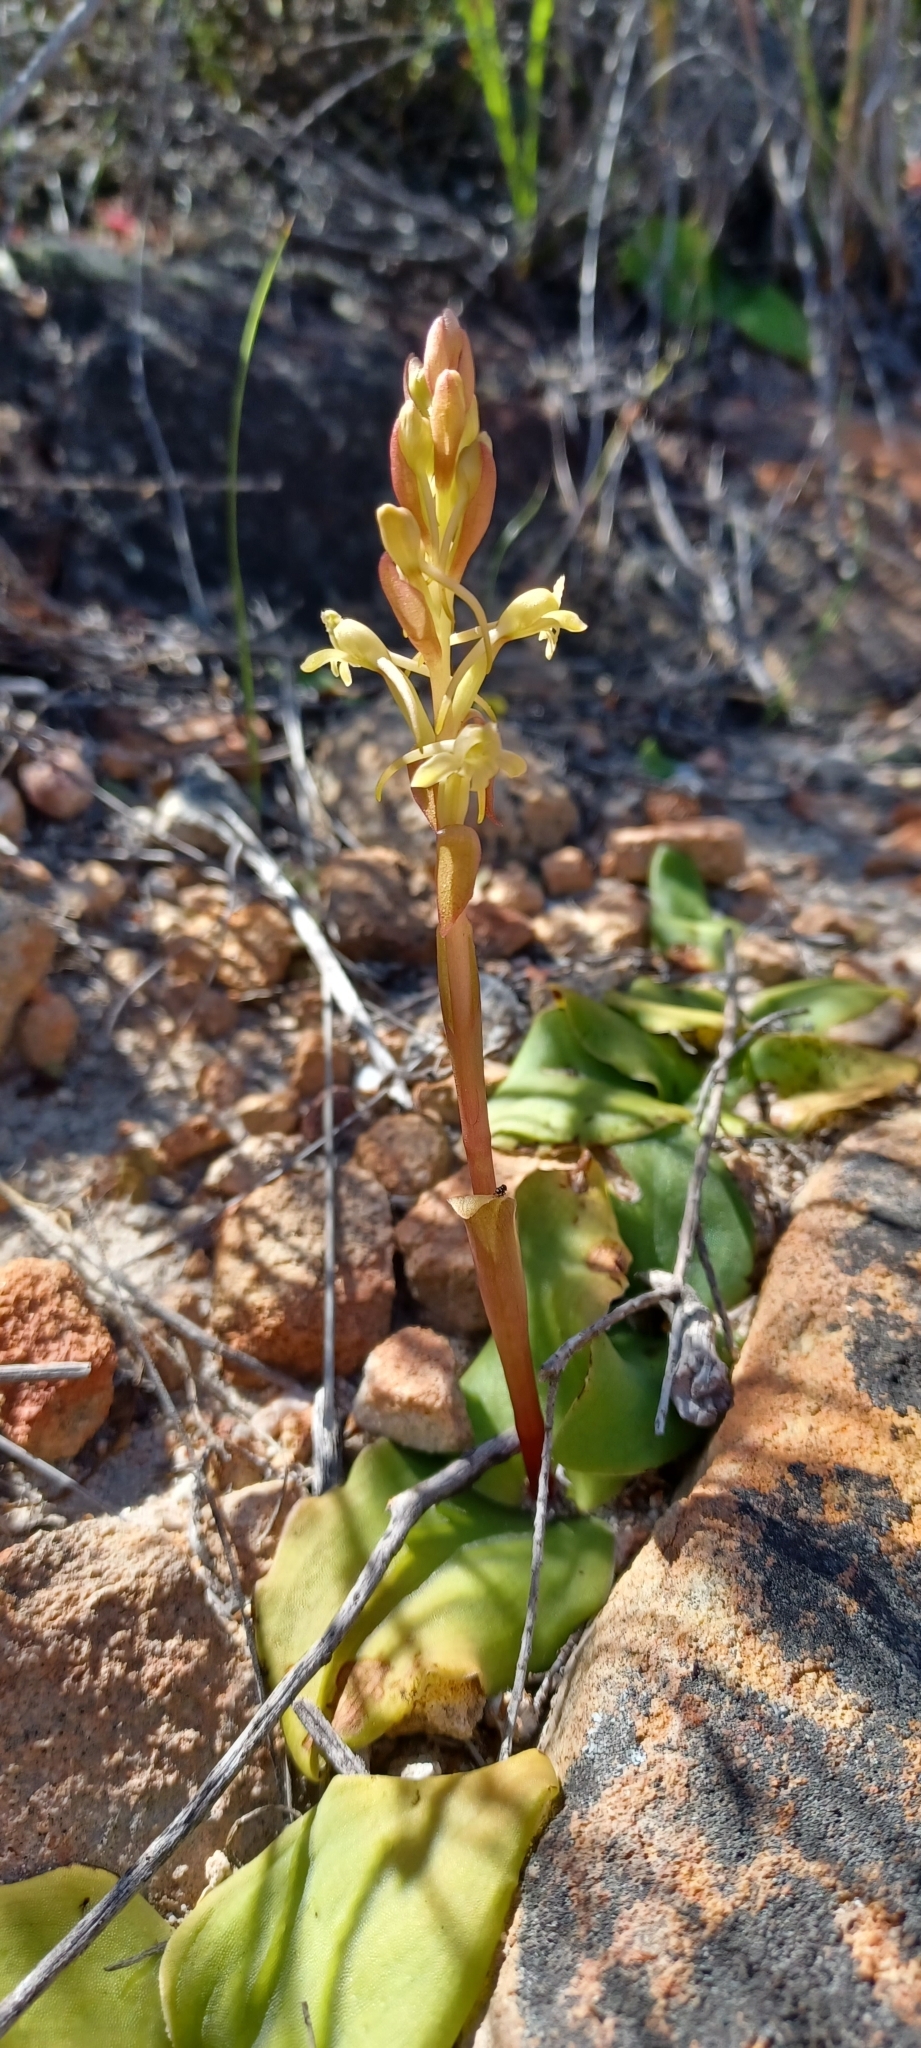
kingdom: Plantae
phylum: Tracheophyta
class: Liliopsida
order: Asparagales
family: Orchidaceae
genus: Satyrium
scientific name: Satyrium humile
